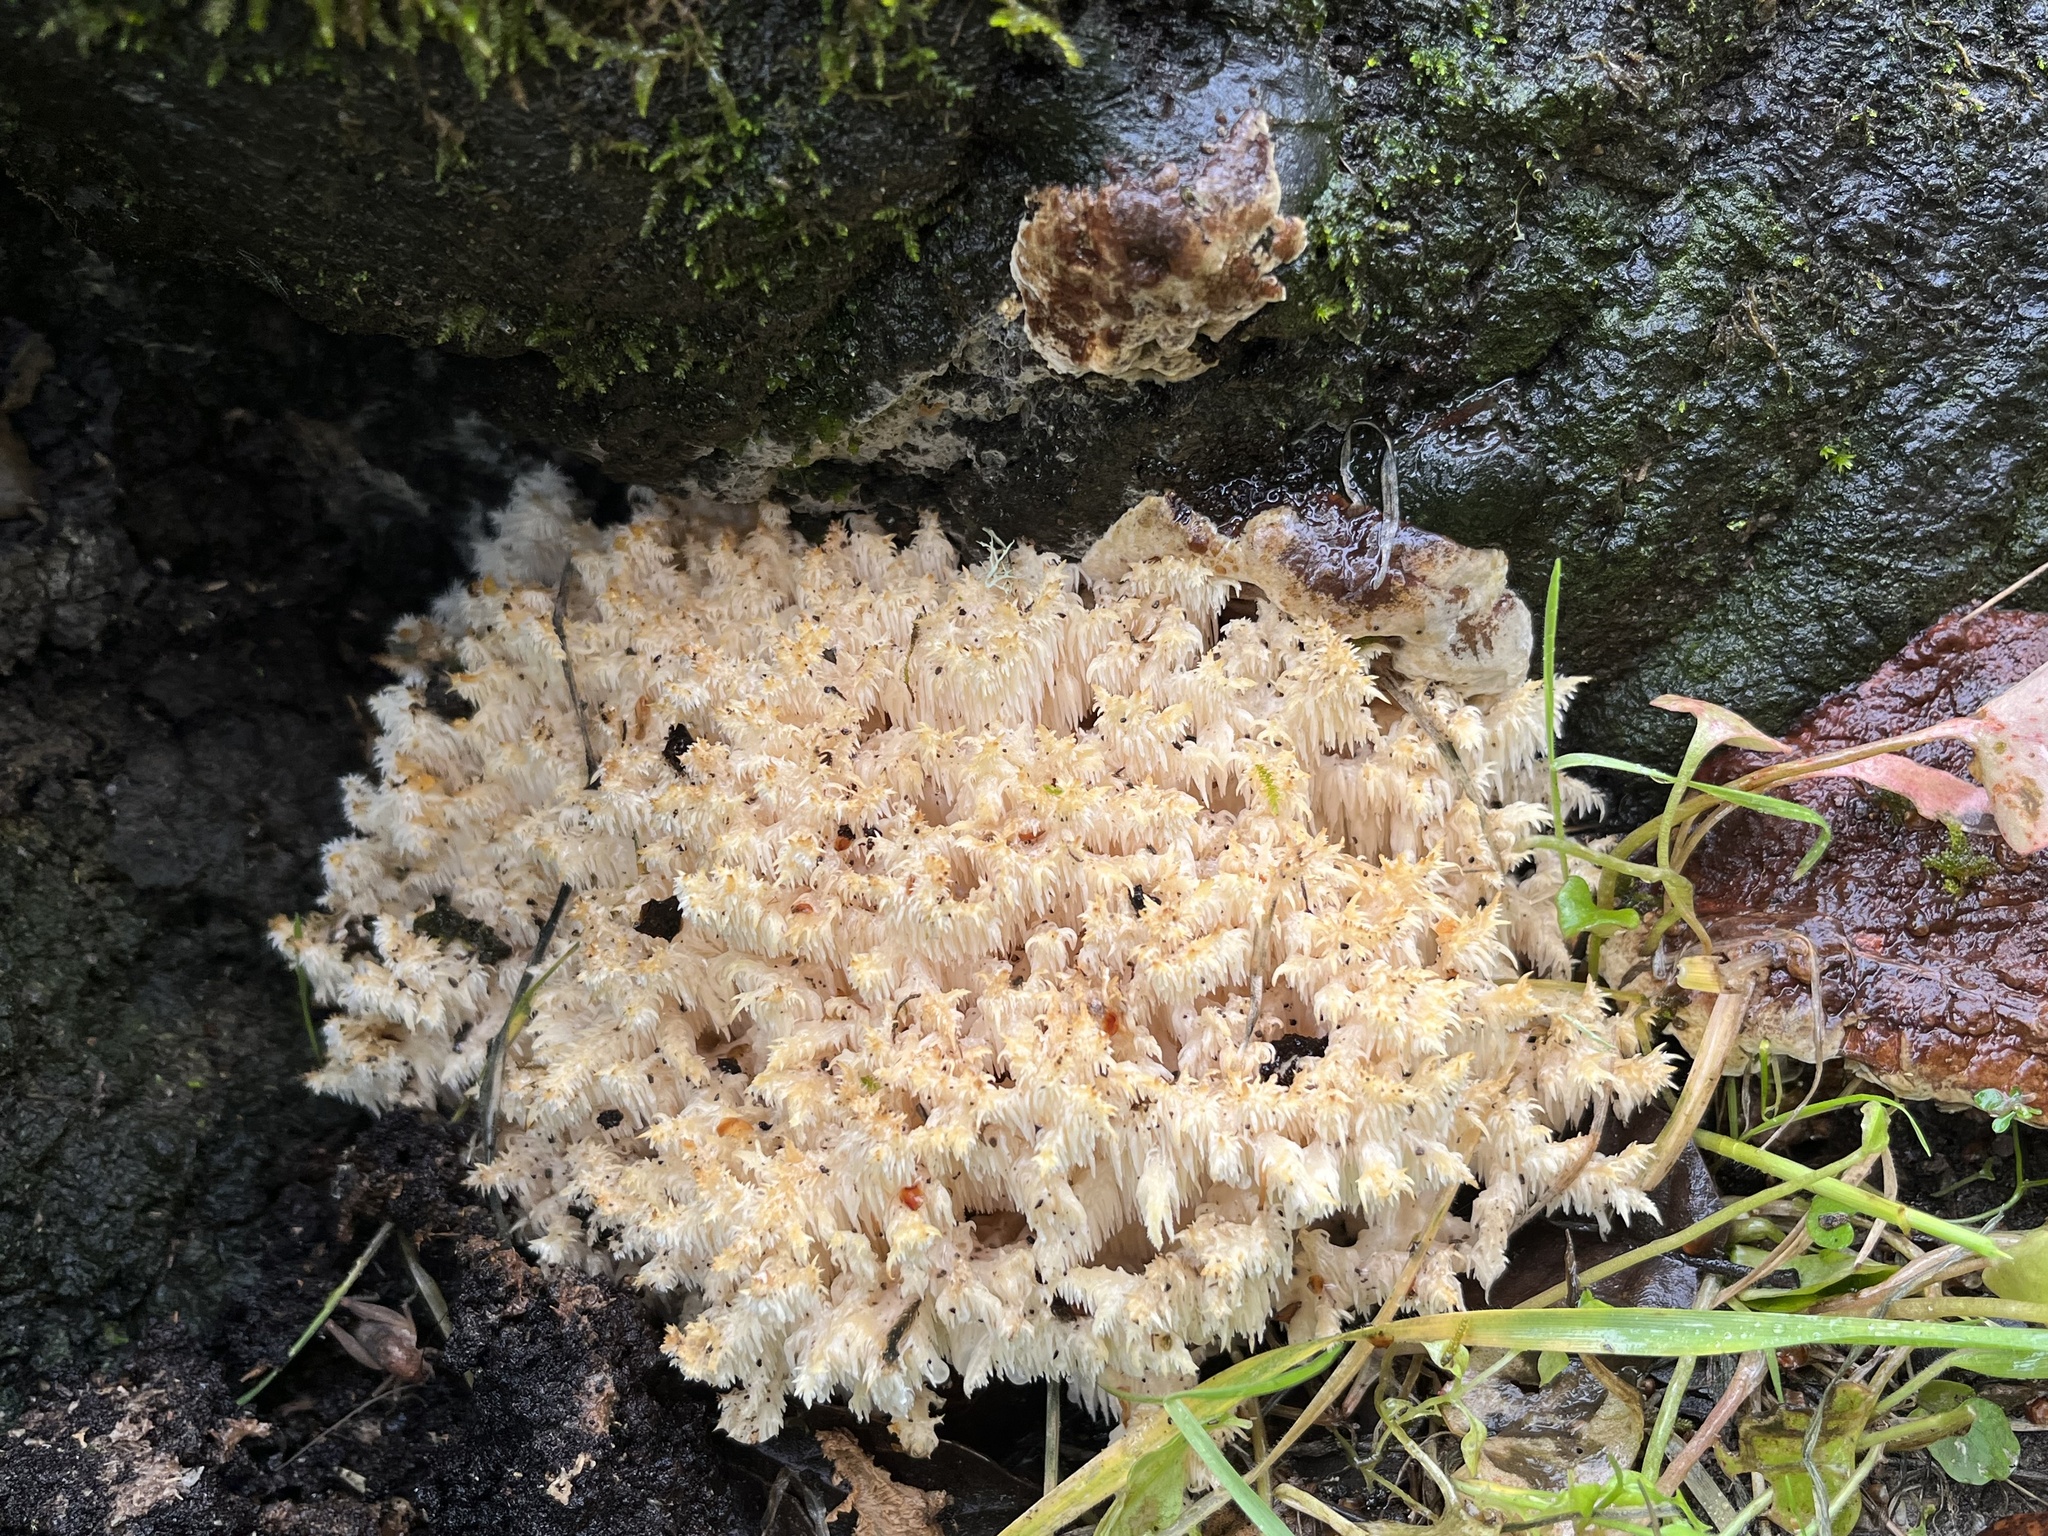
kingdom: Fungi
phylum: Basidiomycota
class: Agaricomycetes
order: Russulales
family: Hericiaceae
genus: Hericium
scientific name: Hericium coralloides
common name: Coral tooth
